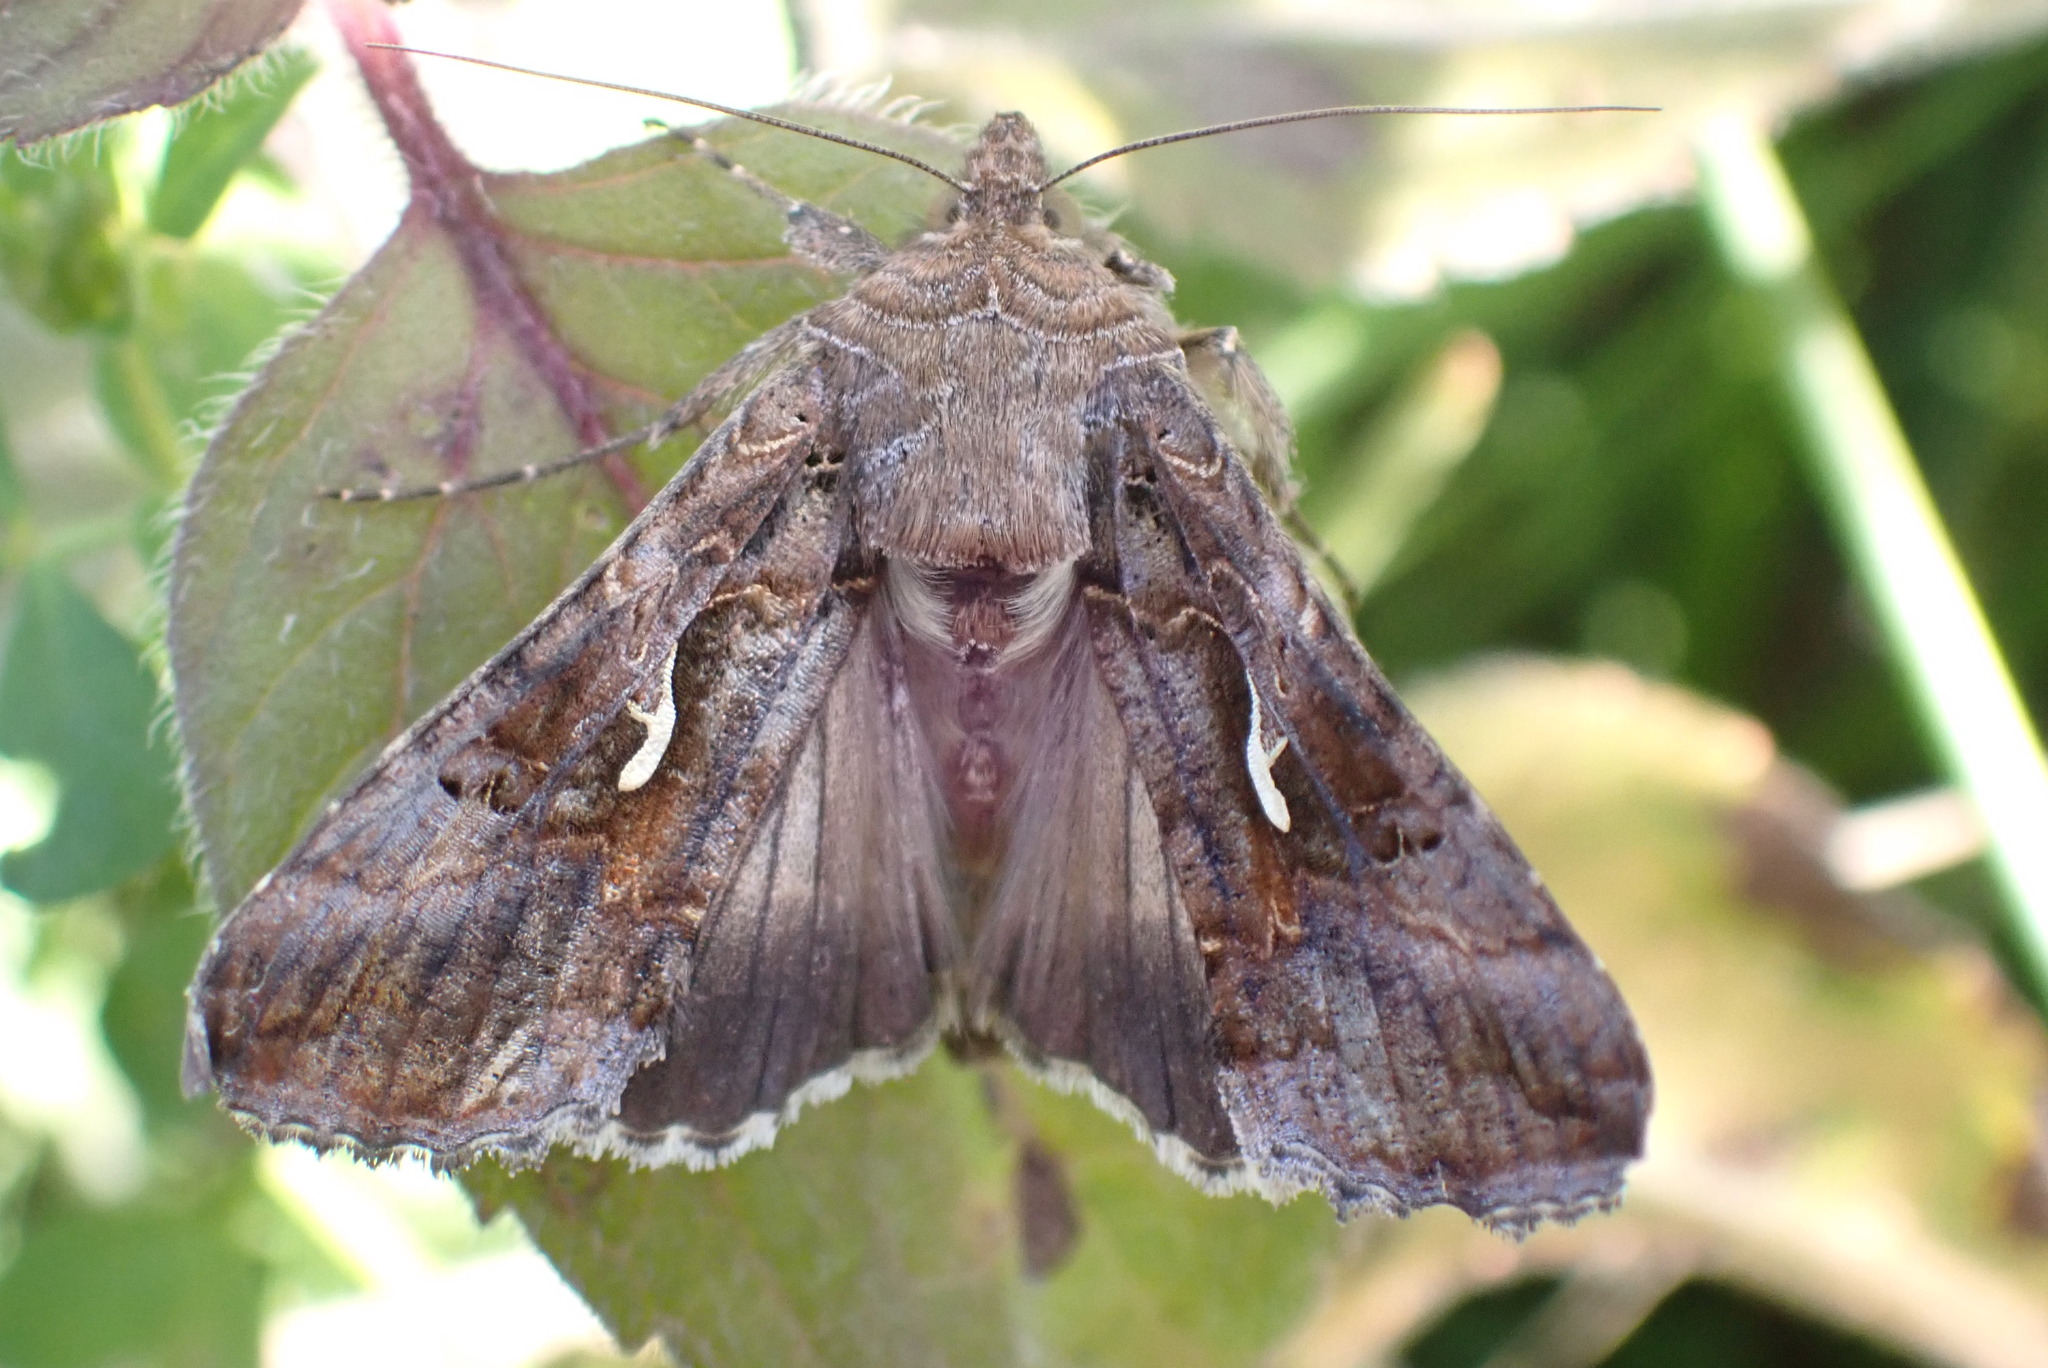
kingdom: Animalia
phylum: Arthropoda
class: Insecta
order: Lepidoptera
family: Noctuidae
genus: Autographa
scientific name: Autographa gamma
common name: Silver y
